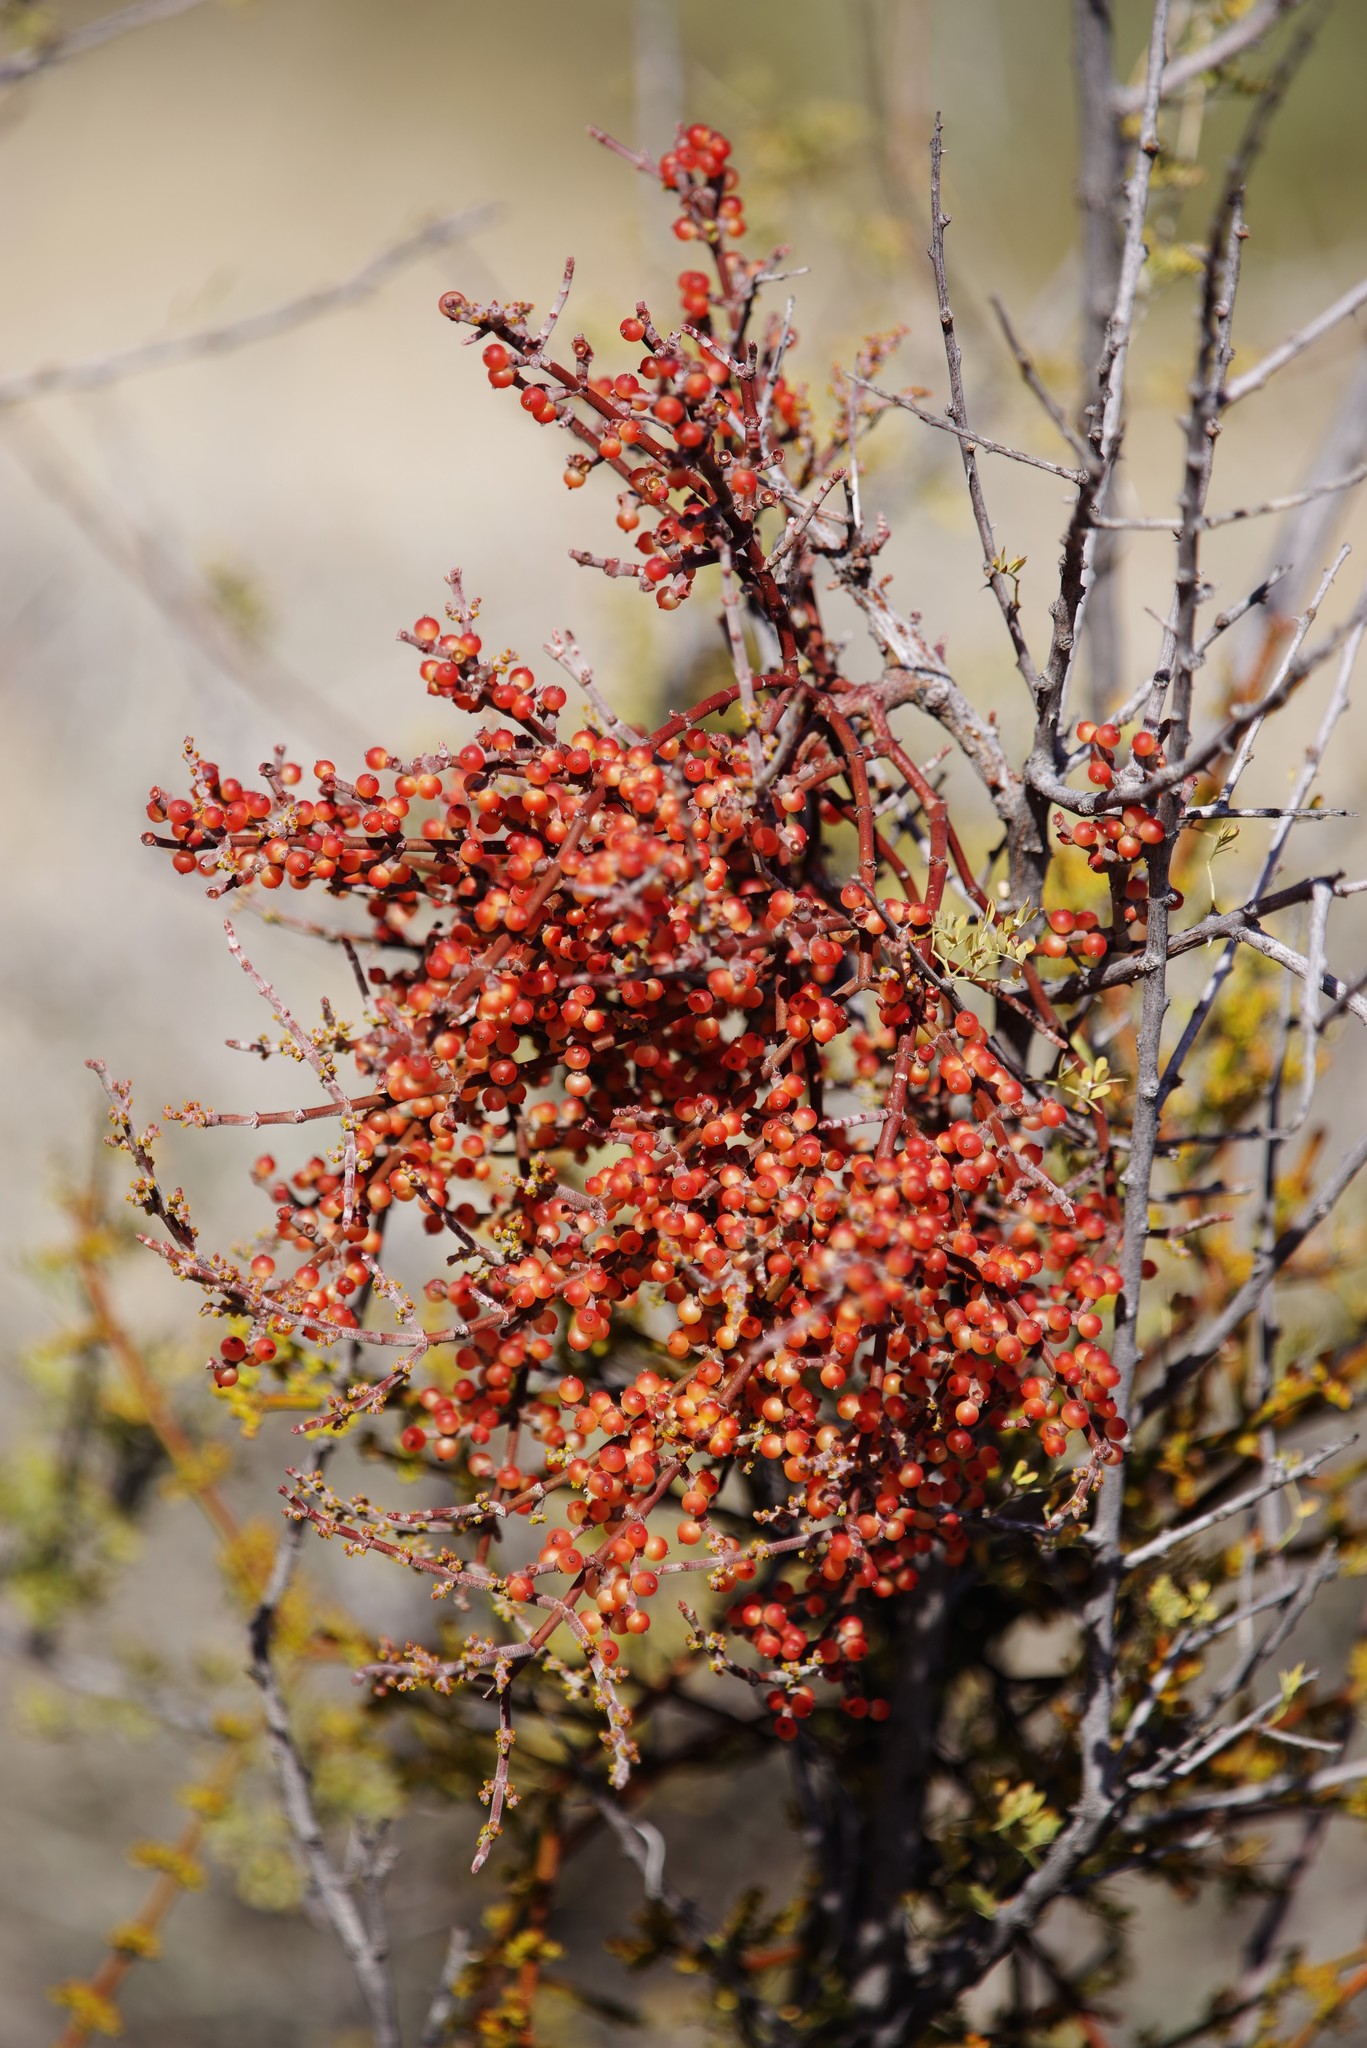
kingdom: Plantae
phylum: Tracheophyta
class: Magnoliopsida
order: Santalales
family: Viscaceae
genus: Phoradendron
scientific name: Phoradendron californicum
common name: Acacia mistletoe
